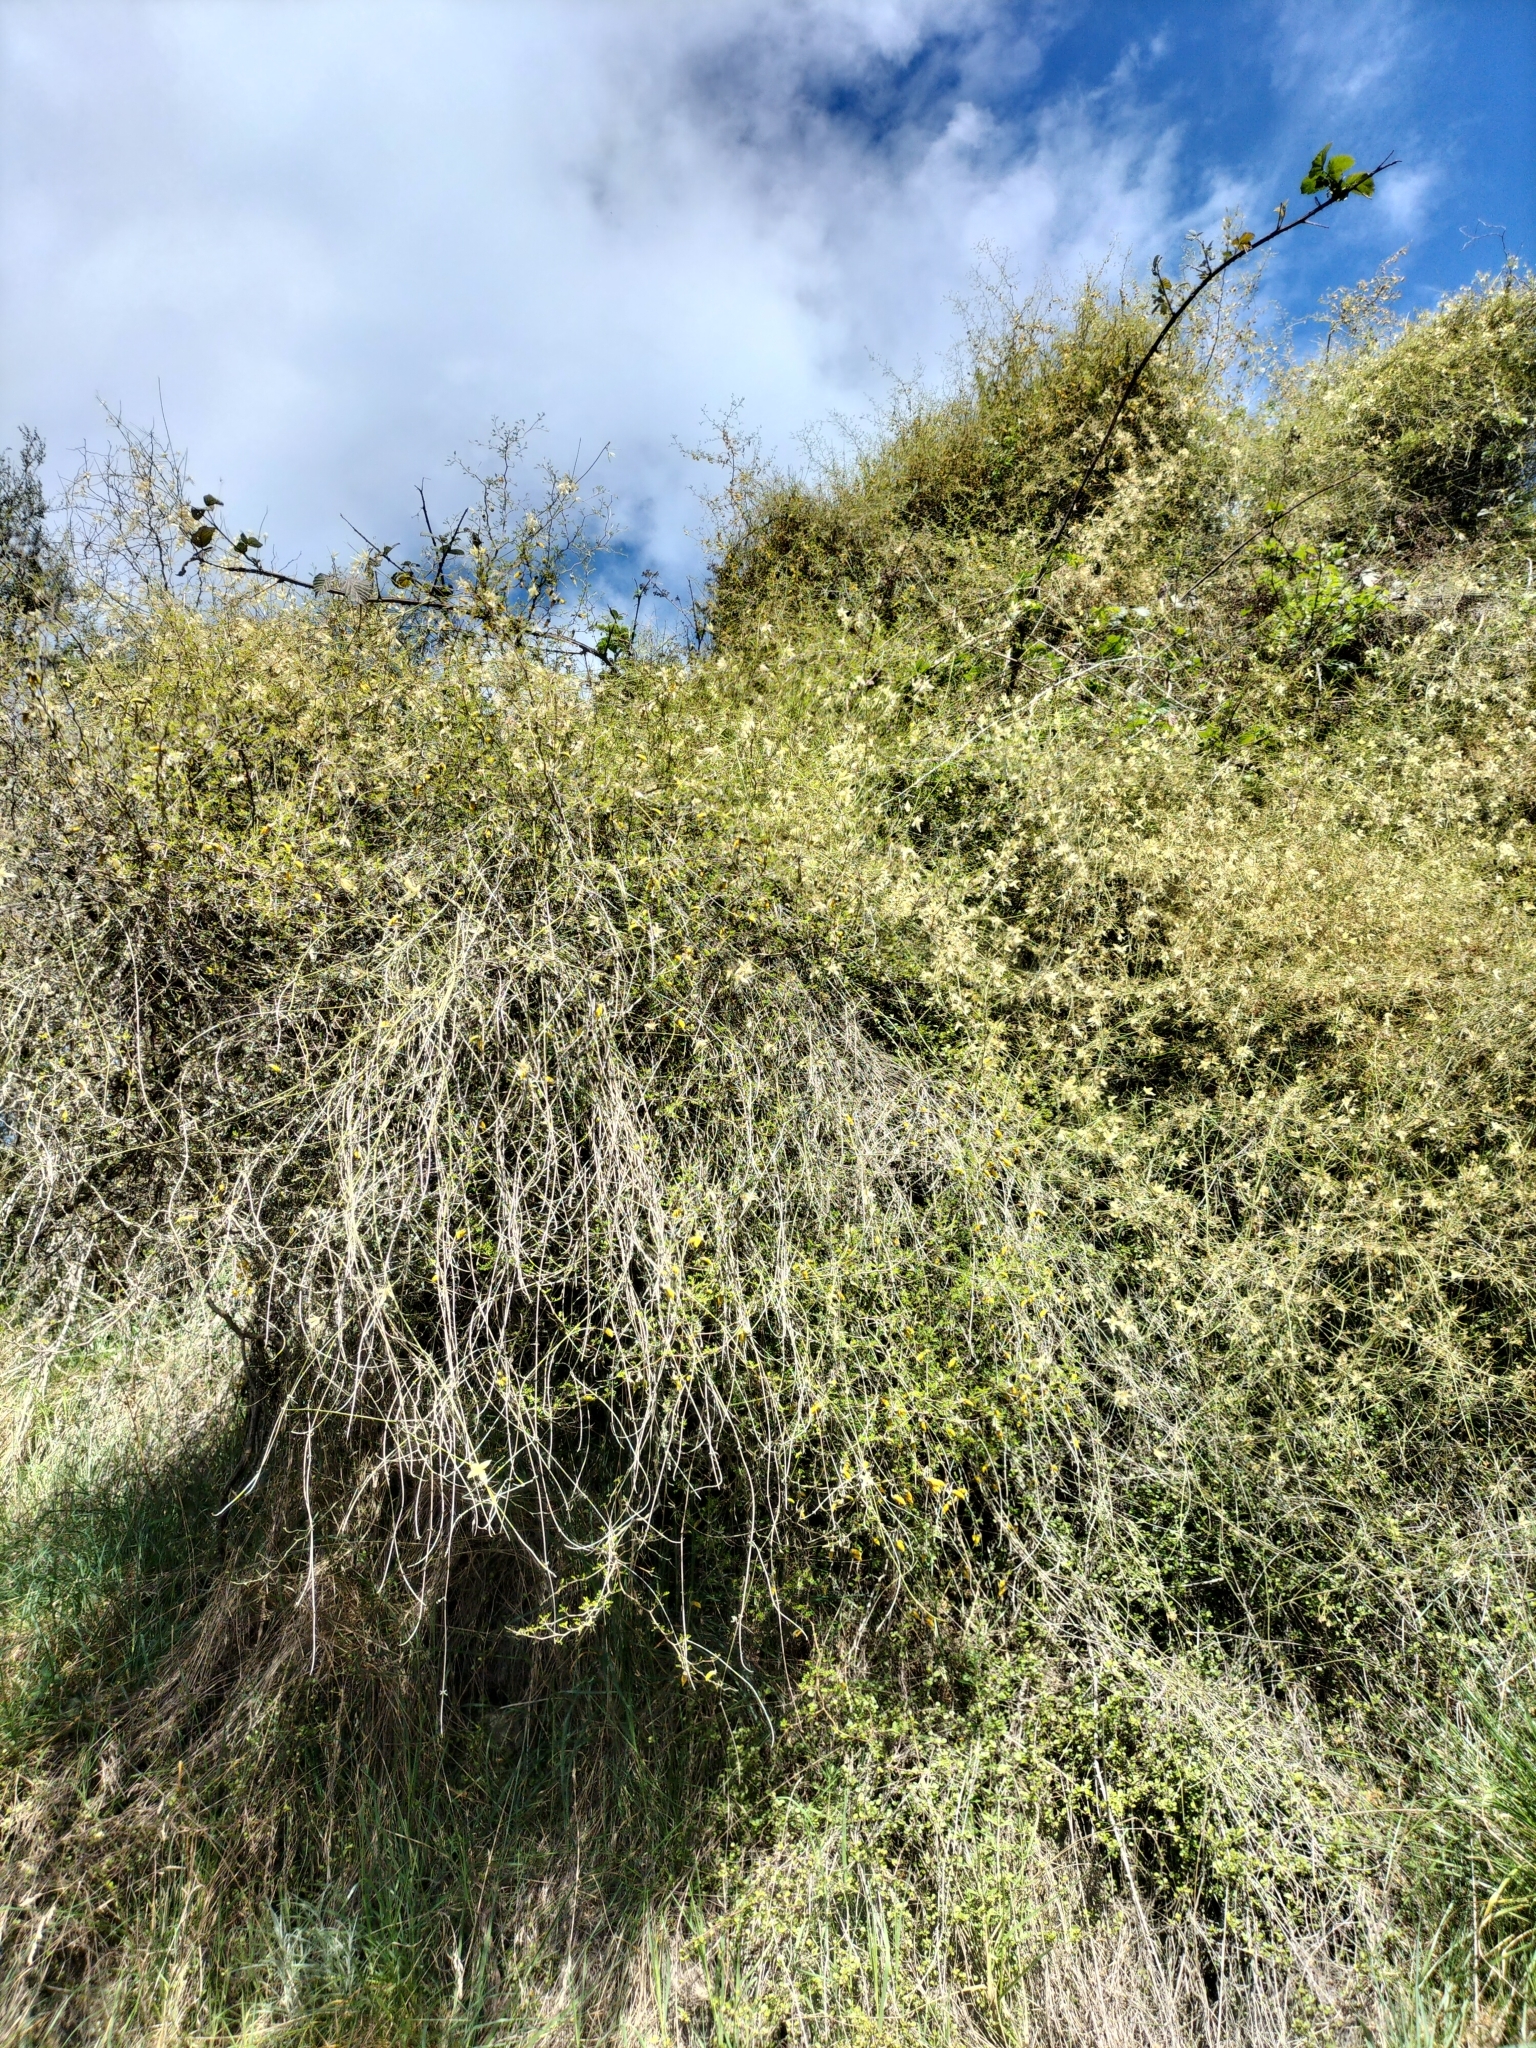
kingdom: Plantae
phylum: Tracheophyta
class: Magnoliopsida
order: Ranunculales
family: Ranunculaceae
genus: Clematis
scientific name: Clematis afoliata
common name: Rush-stem clematis
